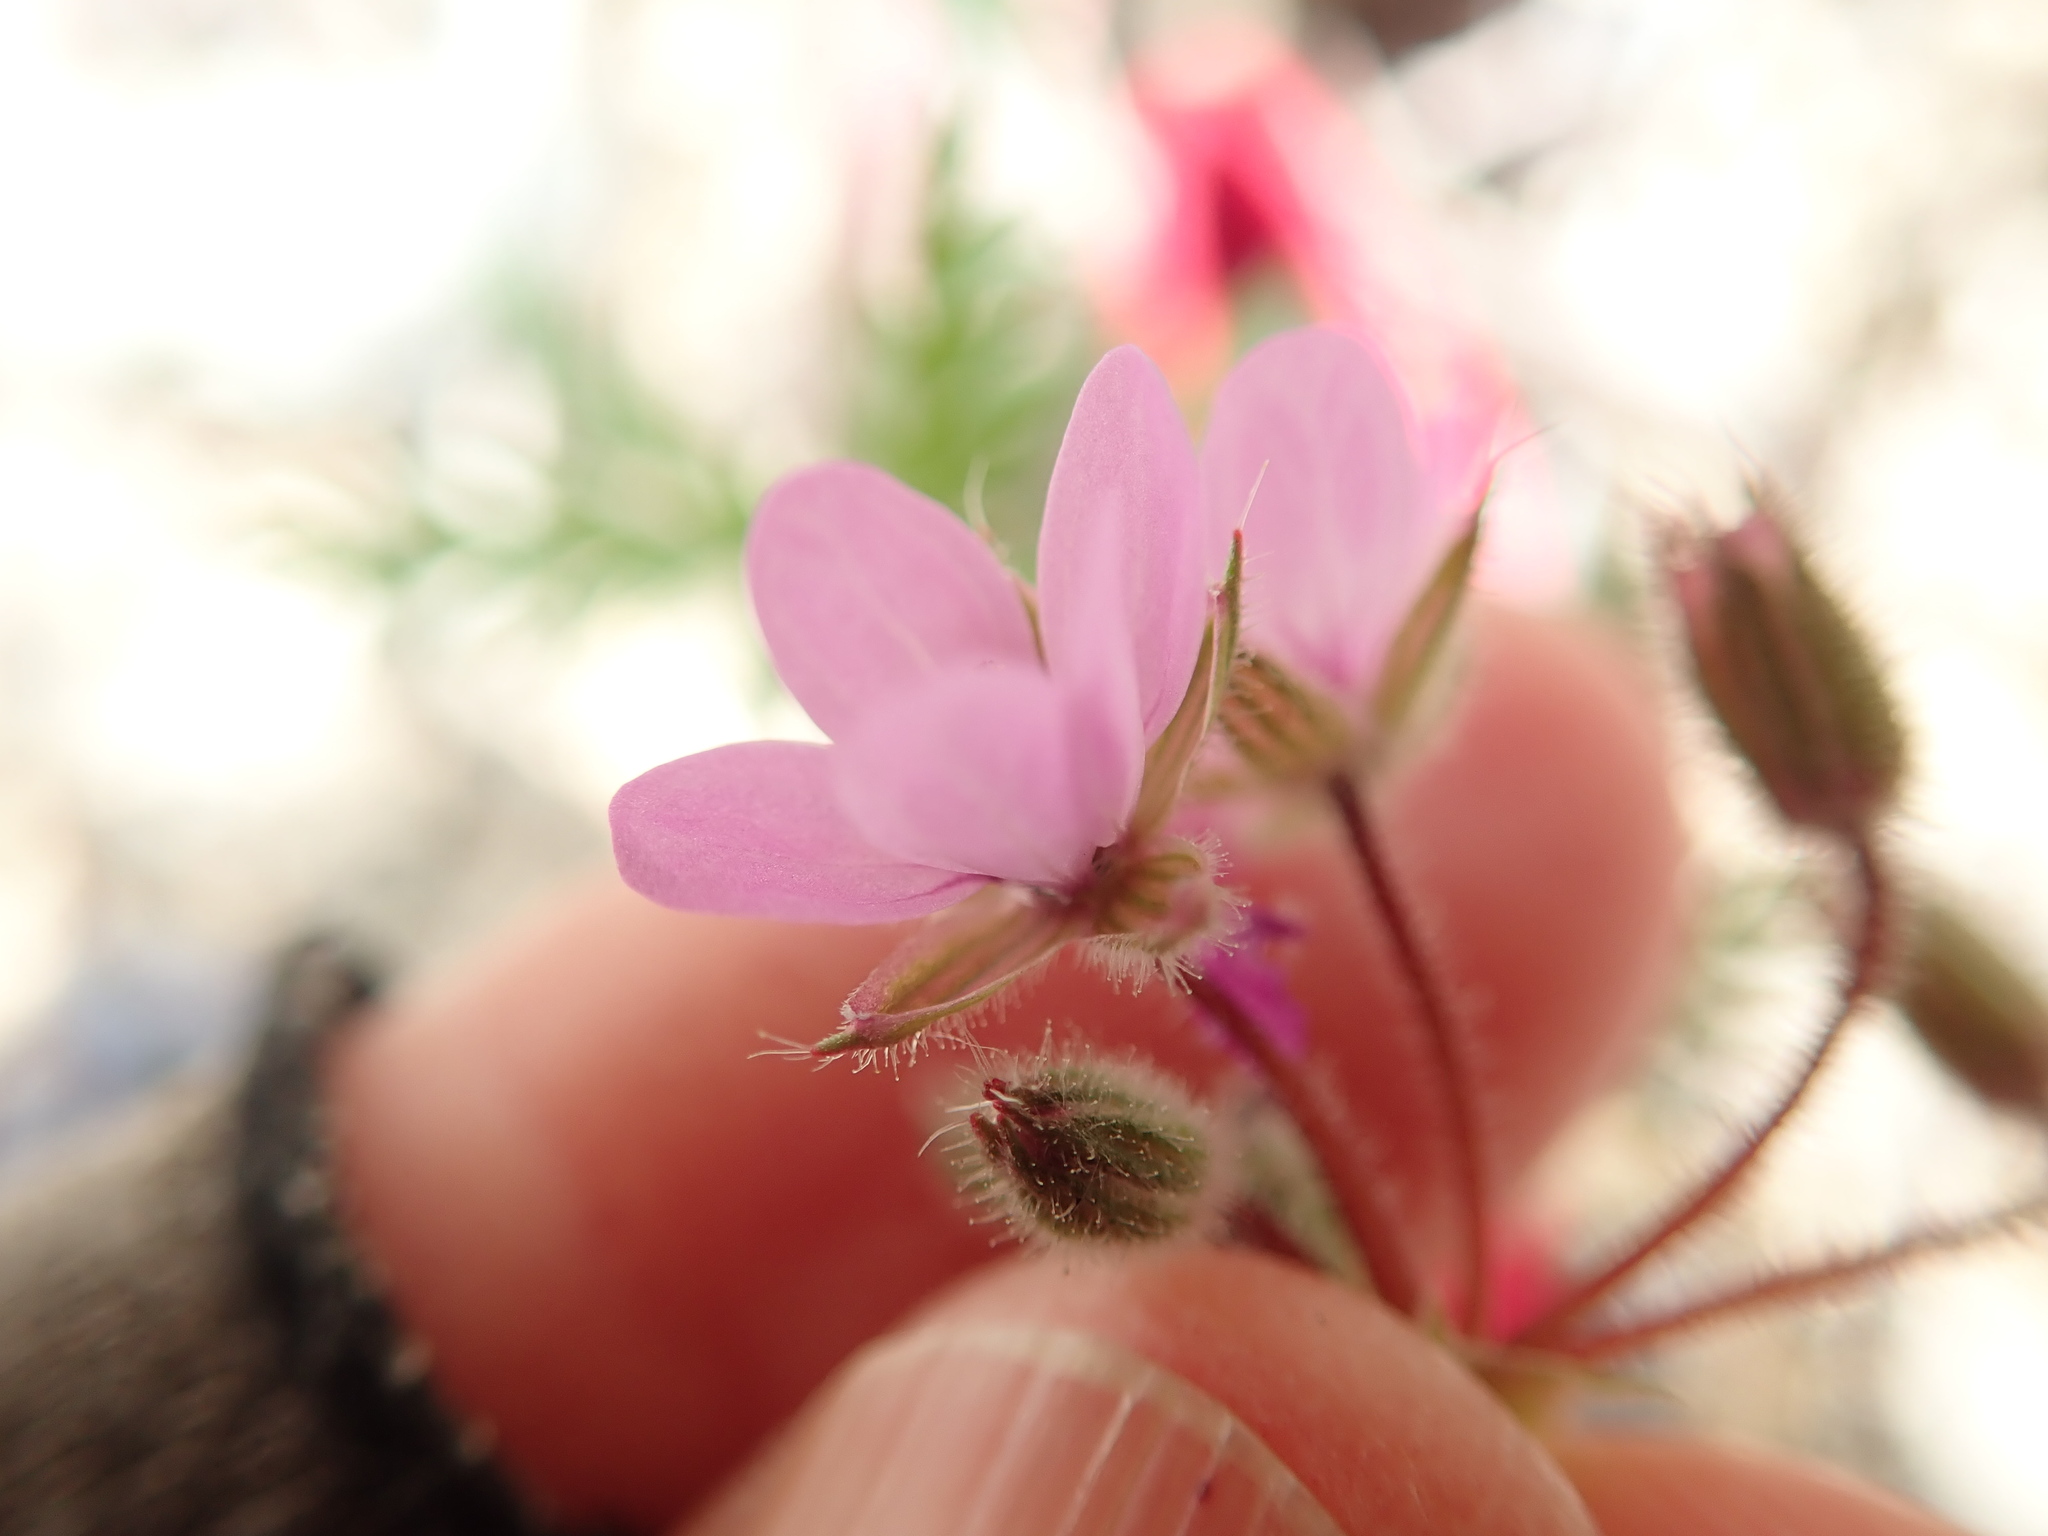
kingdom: Plantae
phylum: Tracheophyta
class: Magnoliopsida
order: Geraniales
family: Geraniaceae
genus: Erodium
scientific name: Erodium cicutarium
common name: Common stork's-bill
